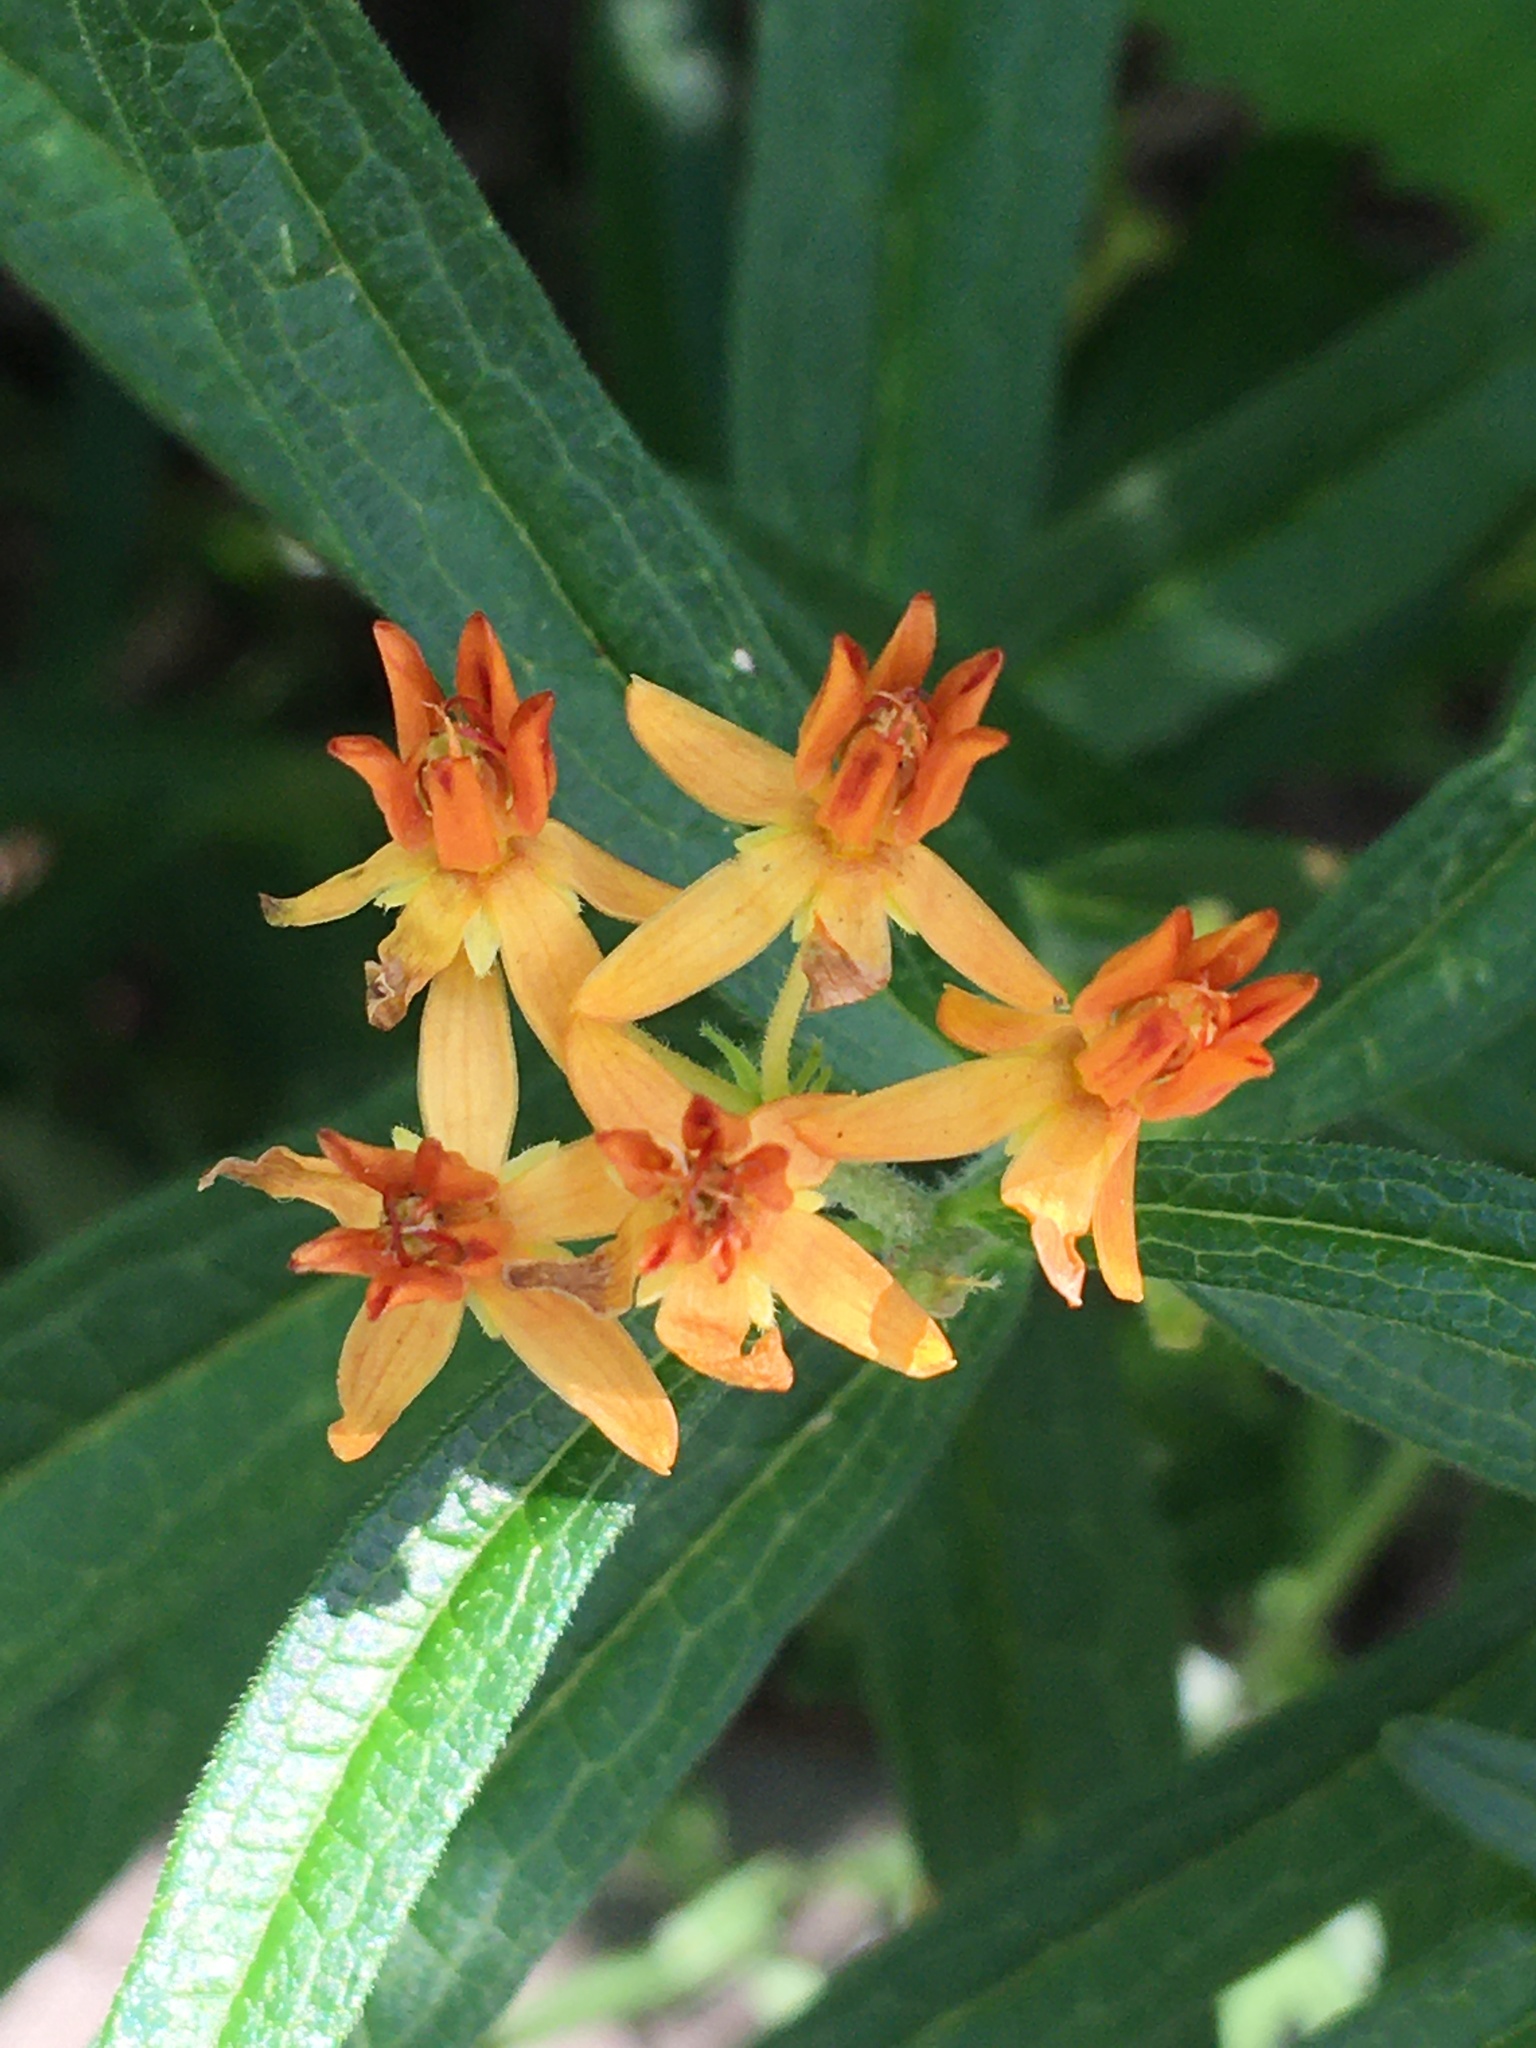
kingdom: Plantae
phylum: Tracheophyta
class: Magnoliopsida
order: Gentianales
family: Apocynaceae
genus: Asclepias
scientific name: Asclepias tuberosa
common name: Butterfly milkweed
